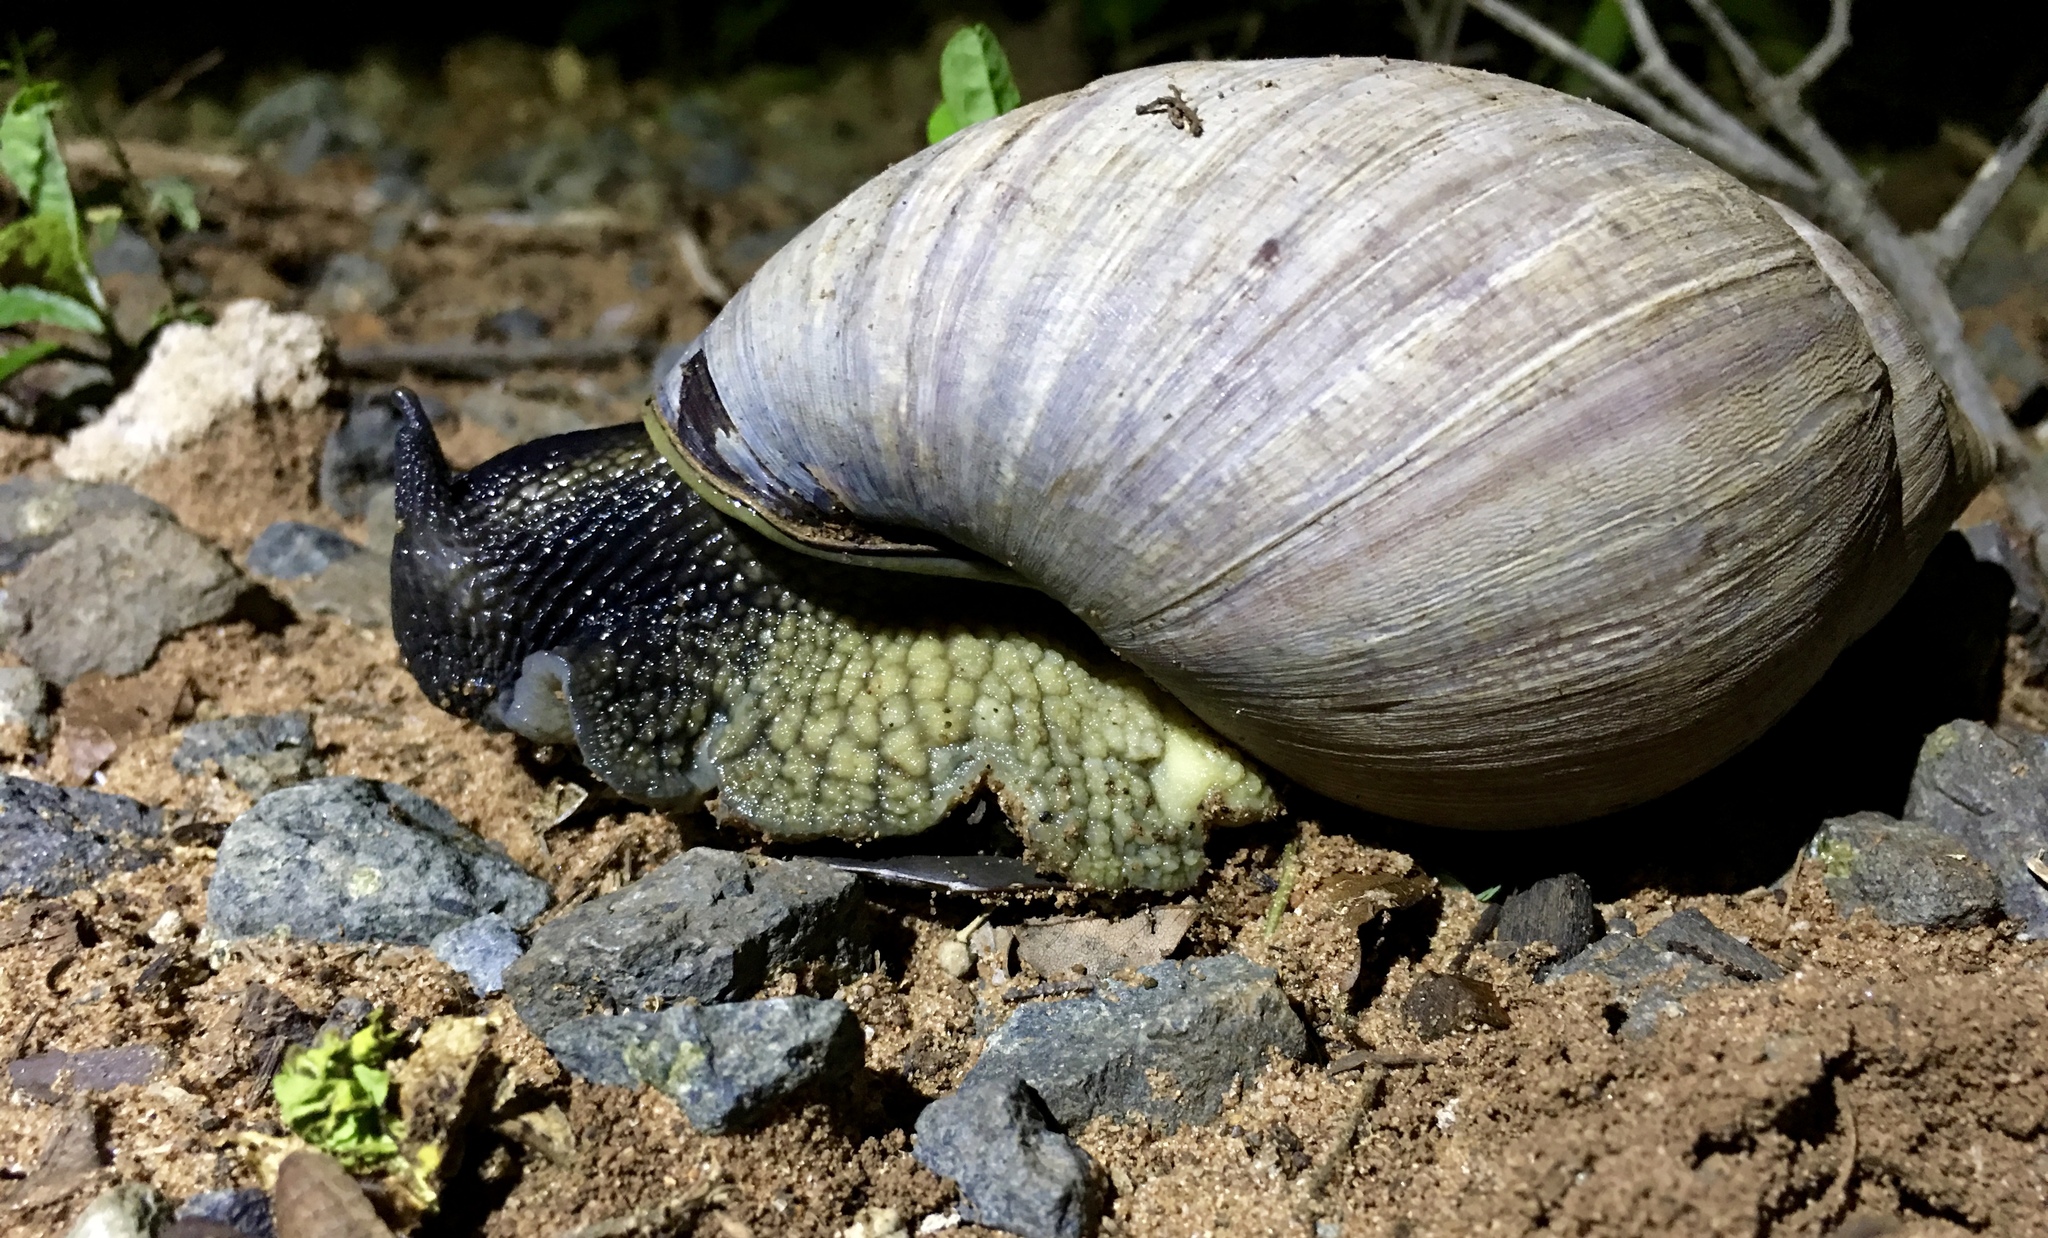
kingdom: Animalia
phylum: Mollusca
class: Gastropoda
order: Stylommatophora
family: Achatinidae
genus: Metachatina
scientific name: Metachatina kraussi
